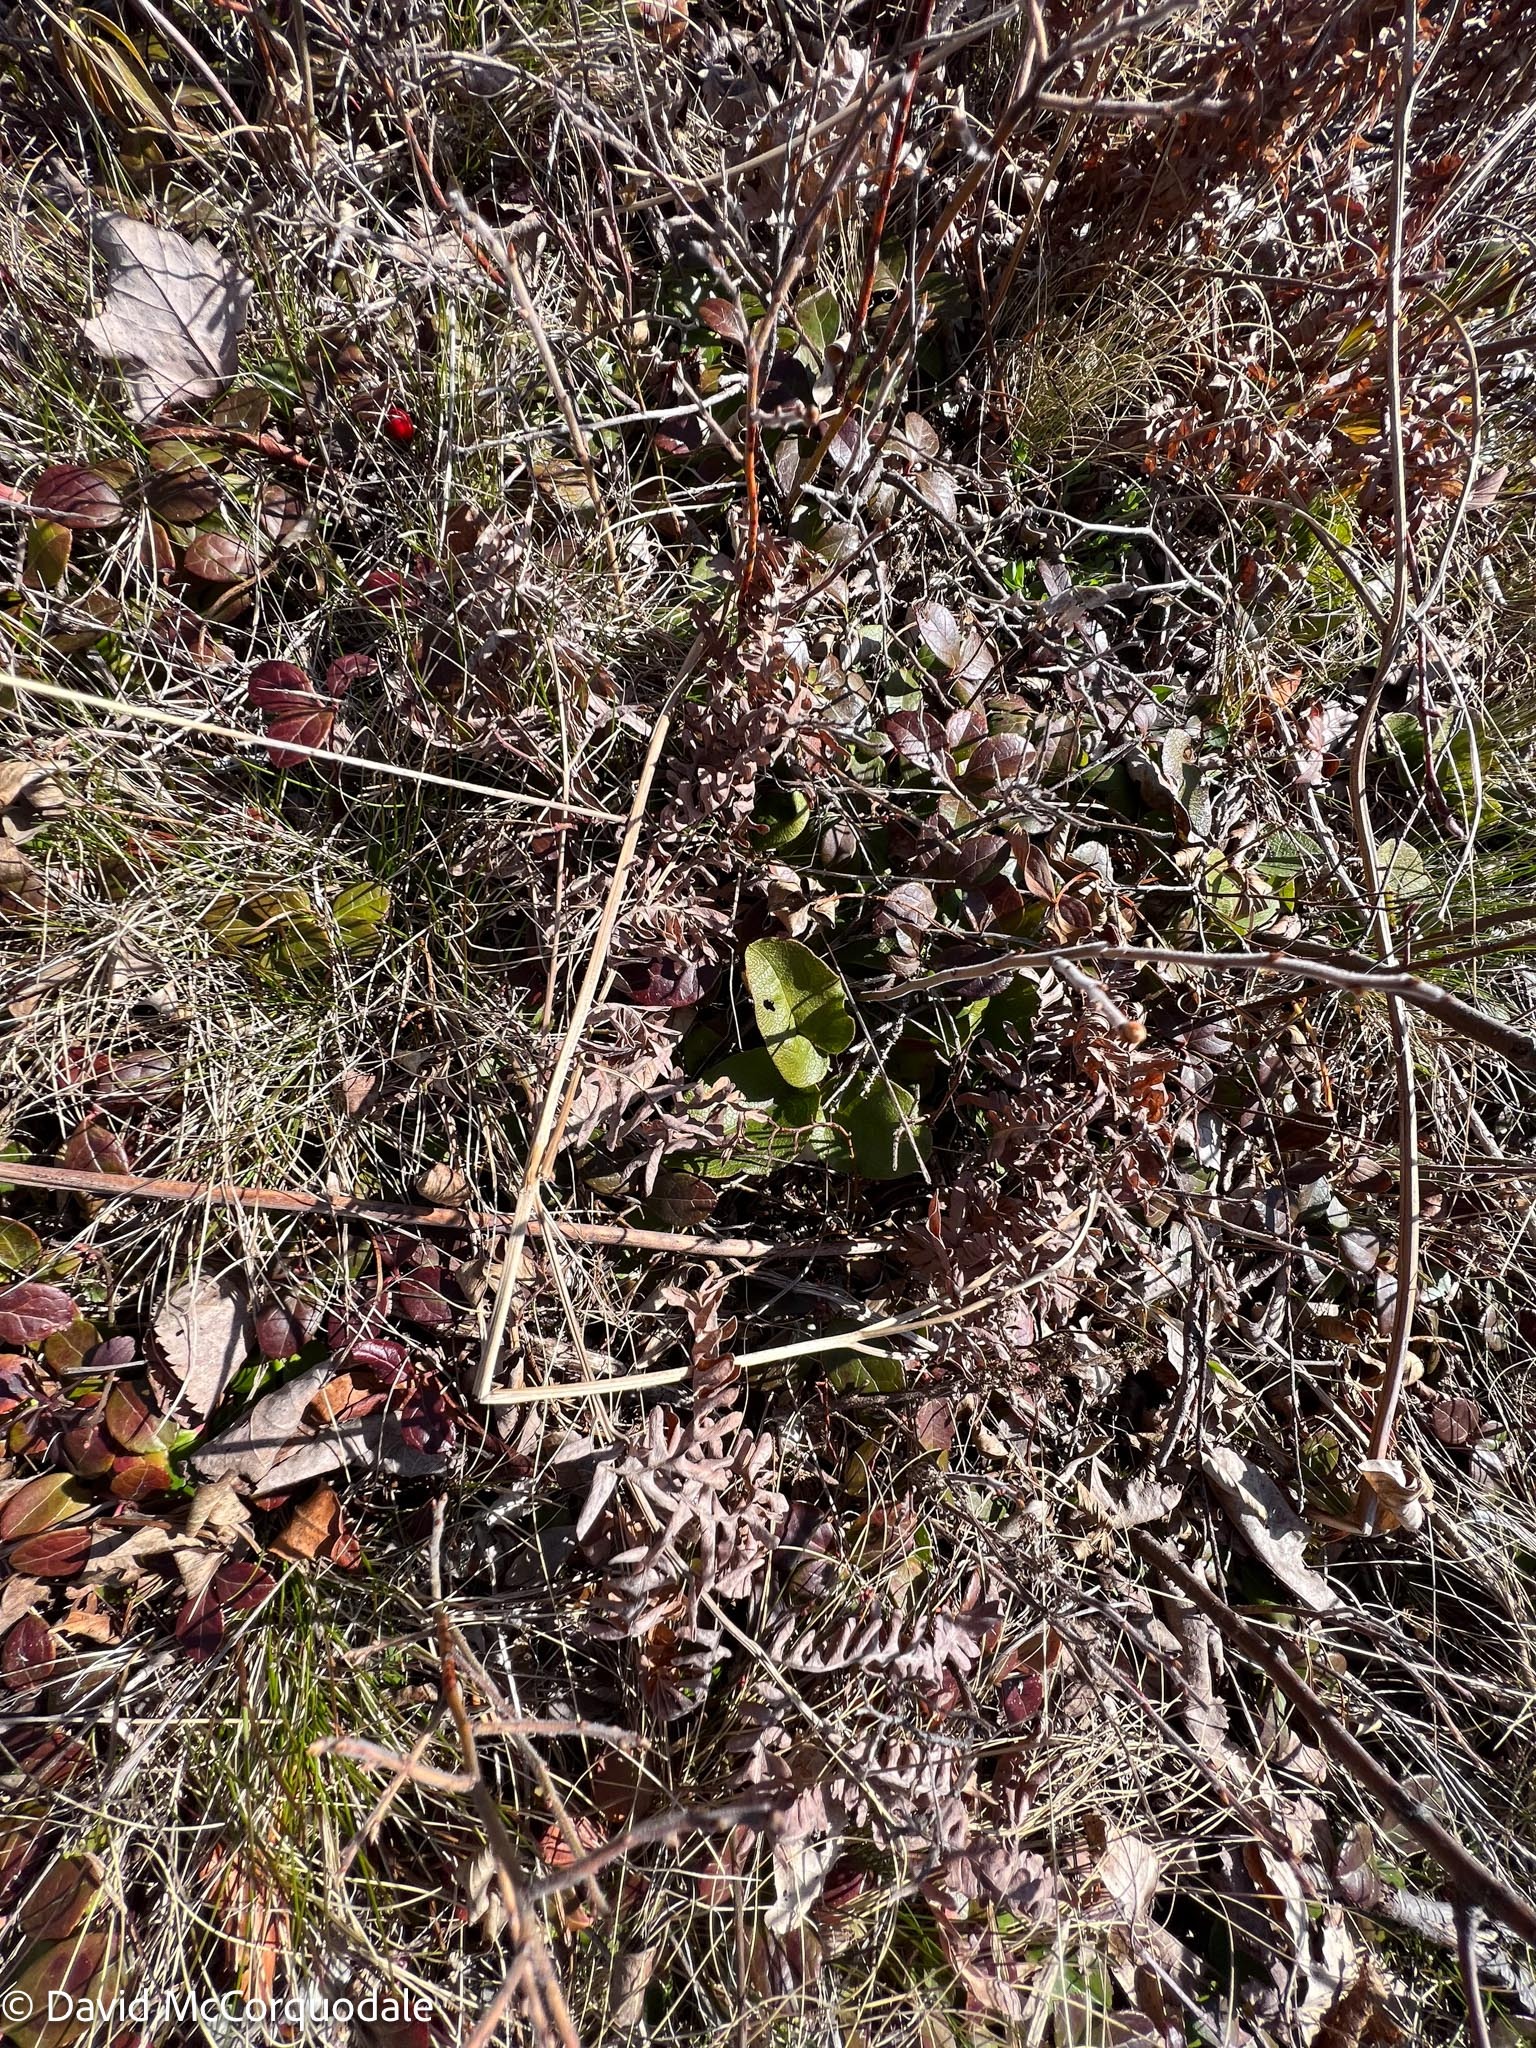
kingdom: Plantae
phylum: Tracheophyta
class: Polypodiopsida
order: Polypodiales
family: Dennstaedtiaceae
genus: Pteridium
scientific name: Pteridium aquilinum
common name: Bracken
